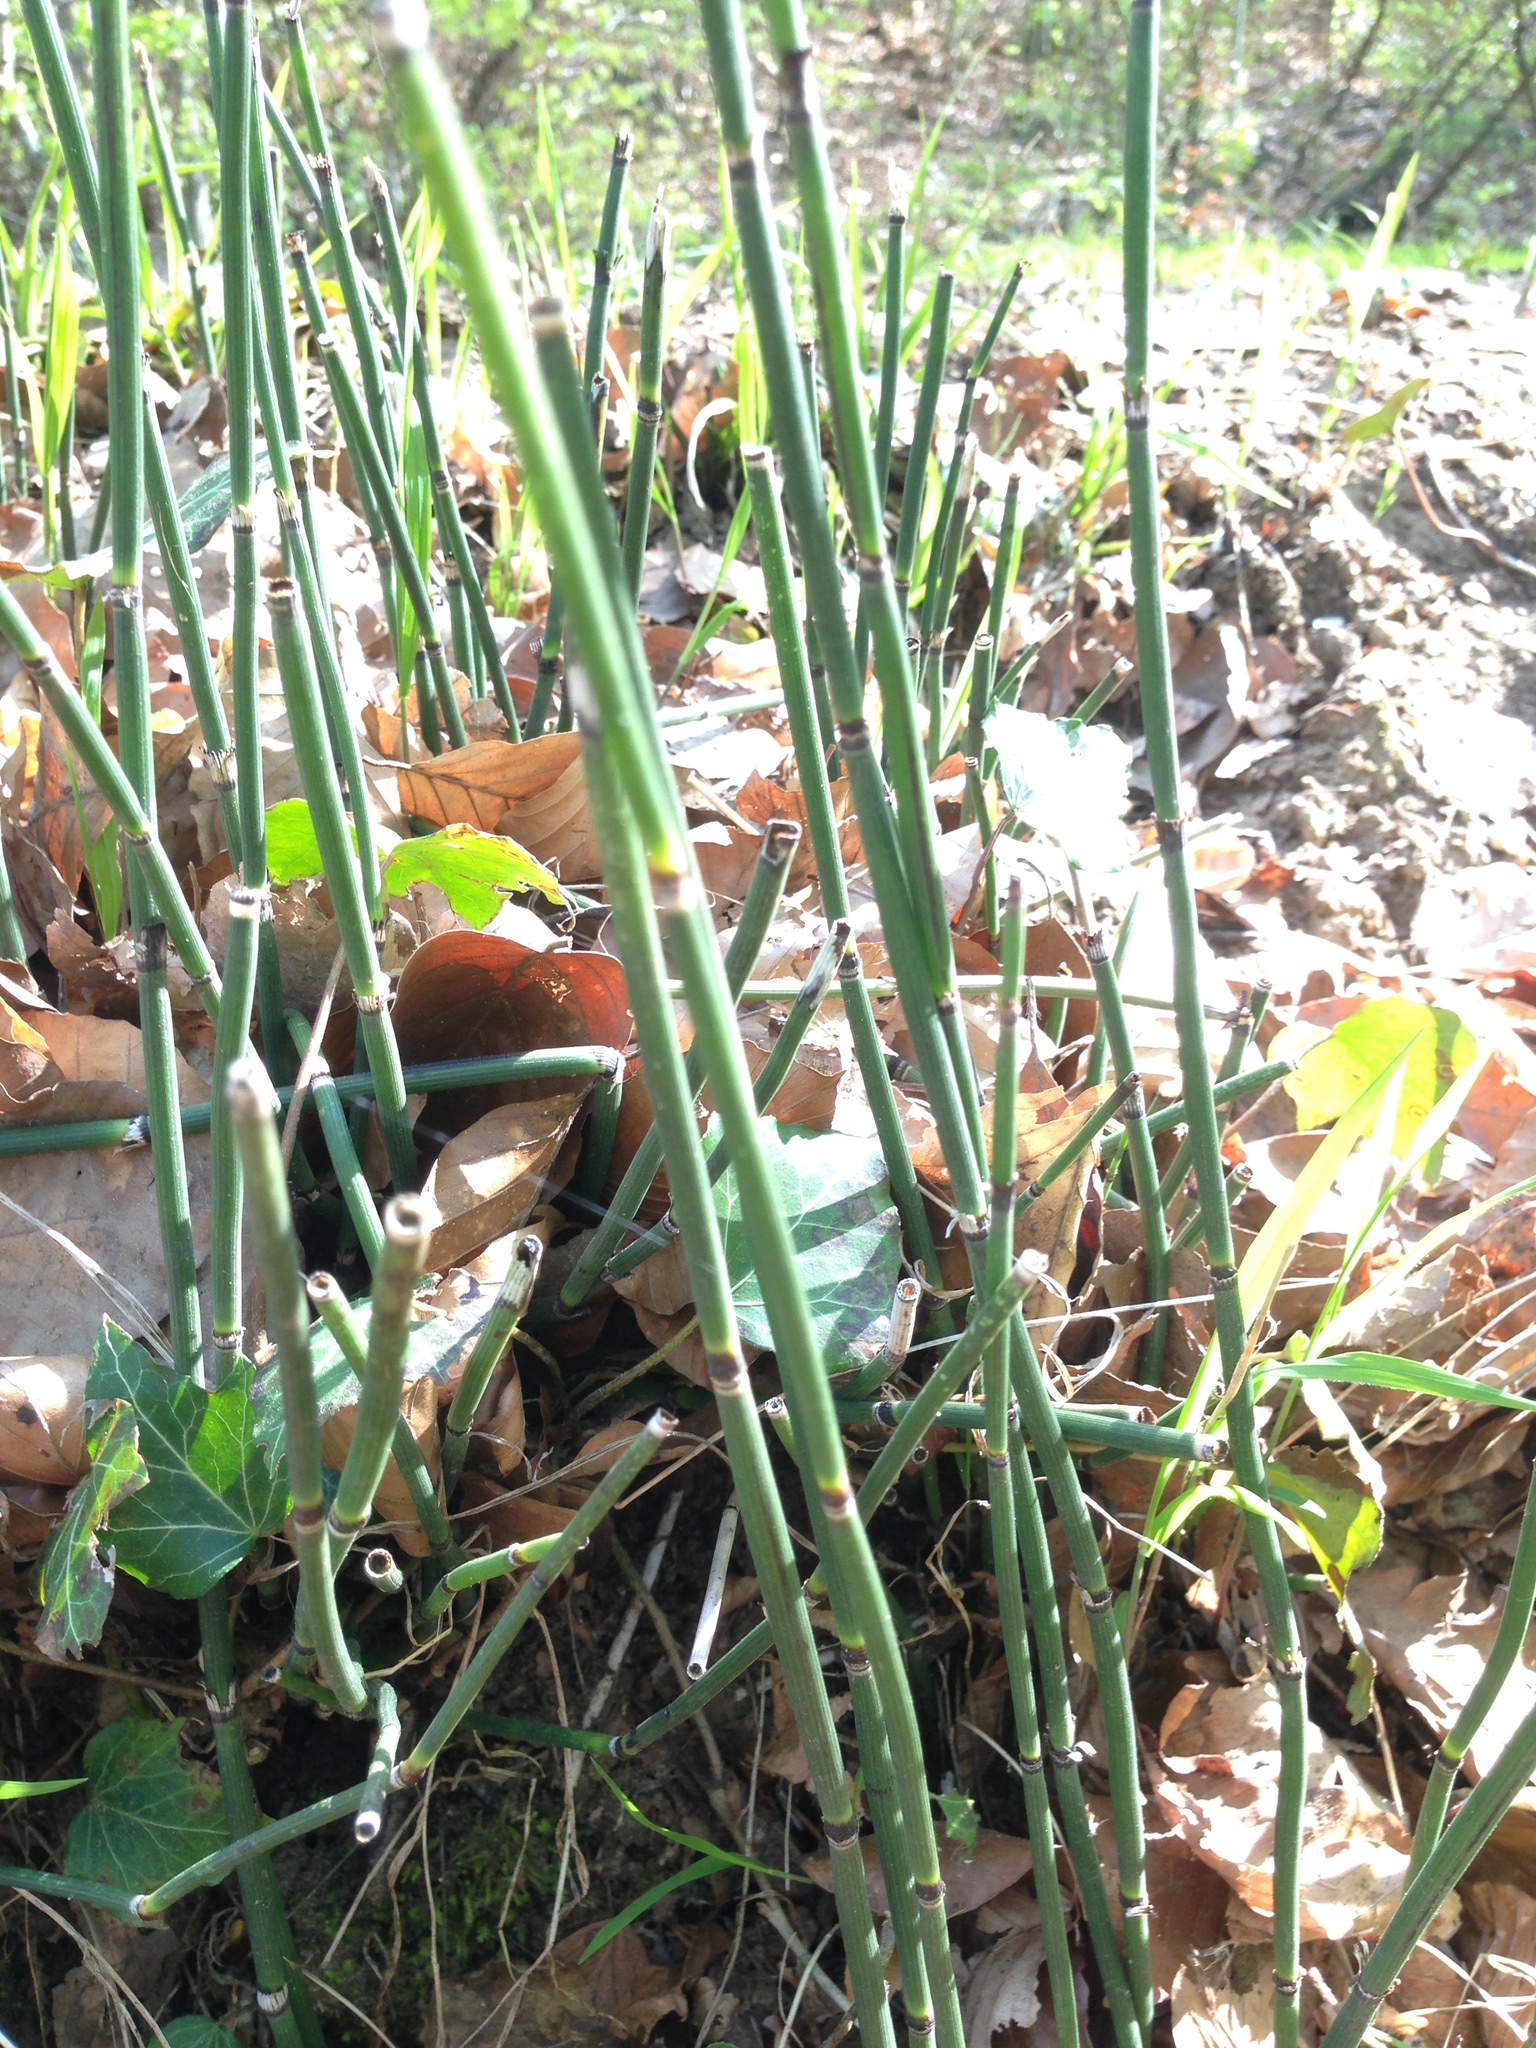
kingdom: Plantae
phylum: Tracheophyta
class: Polypodiopsida
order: Equisetales
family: Equisetaceae
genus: Equisetum
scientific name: Equisetum hyemale
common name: Rough horsetail
